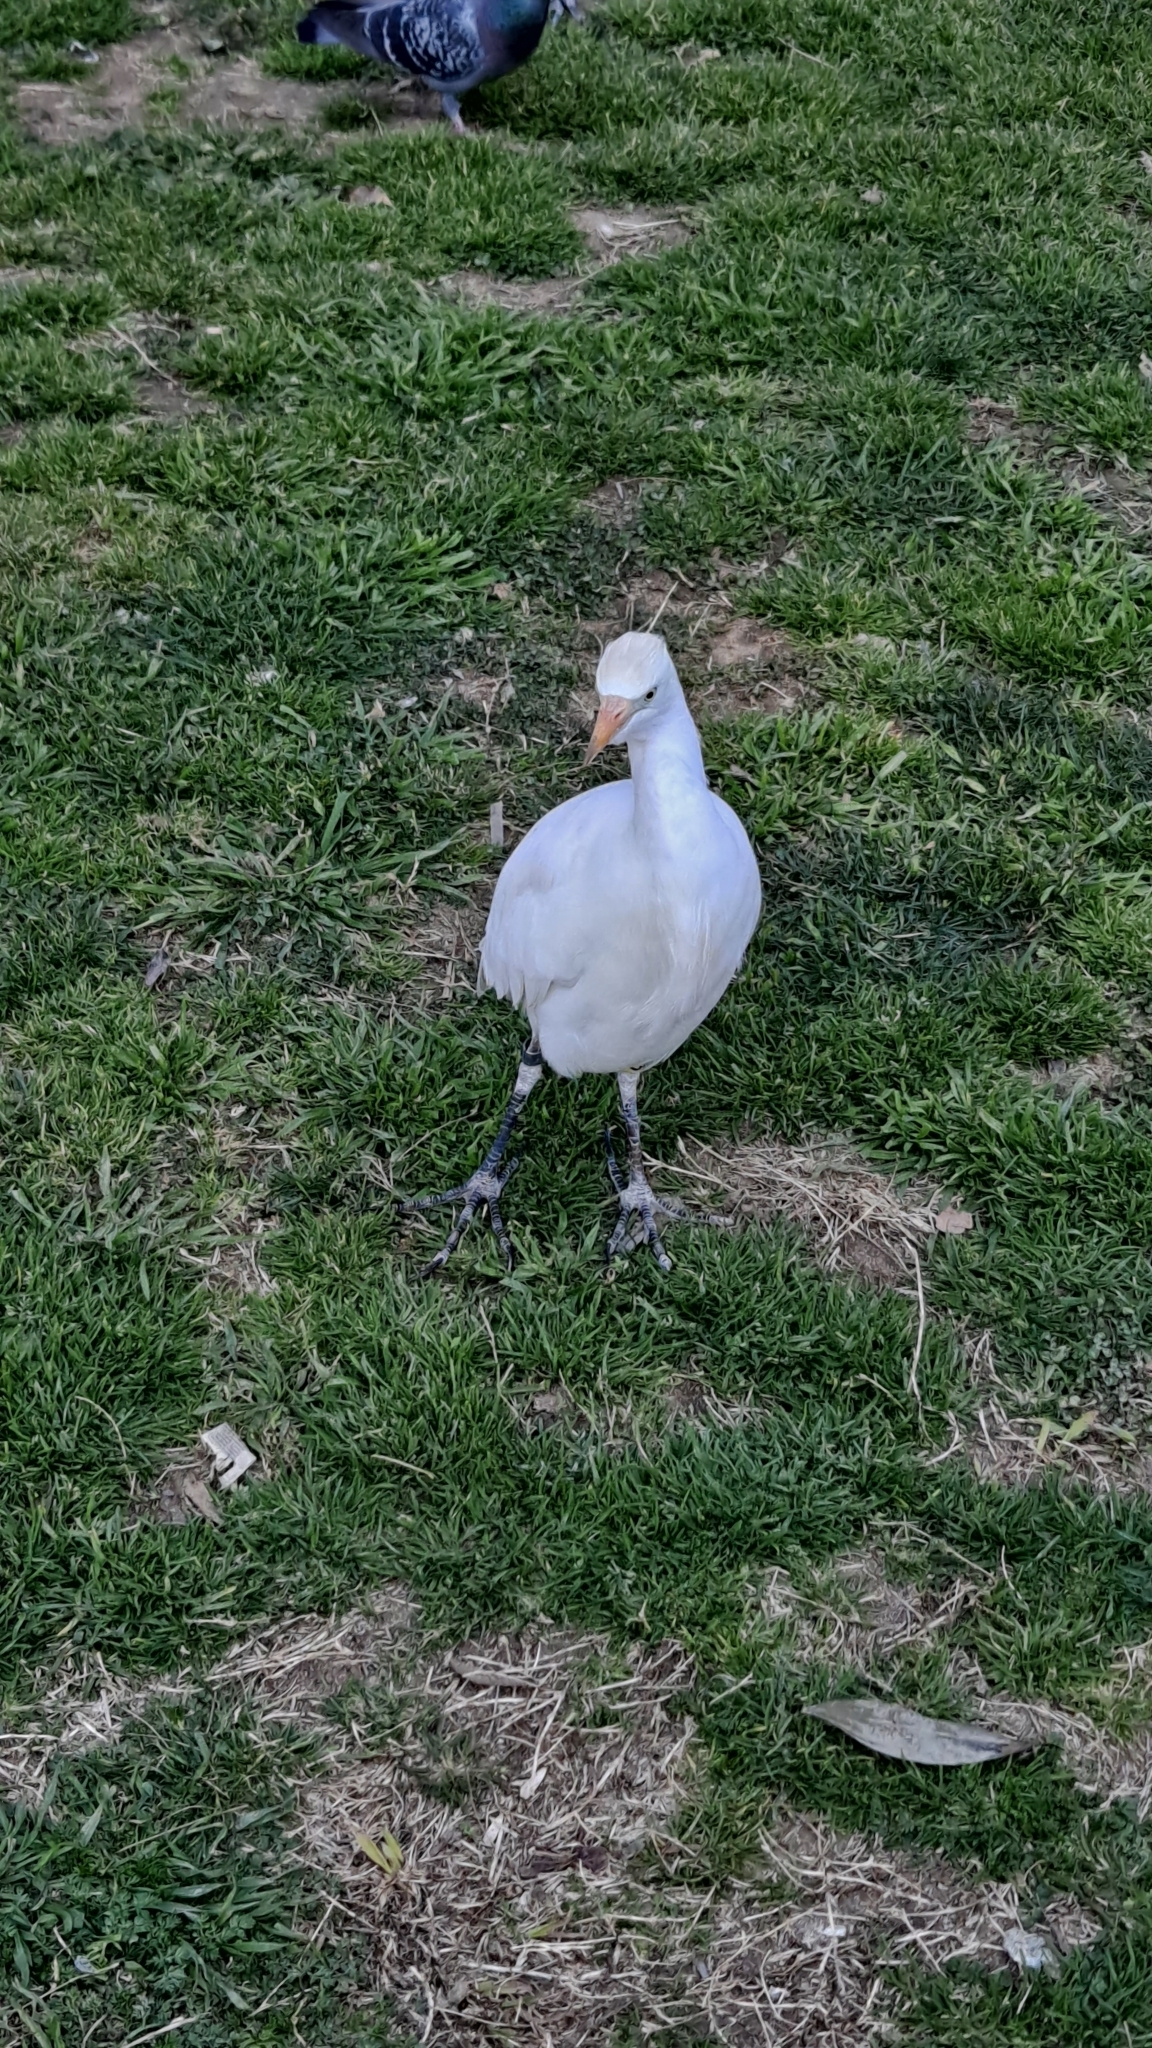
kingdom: Animalia
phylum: Chordata
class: Aves
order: Pelecaniformes
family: Ardeidae
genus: Bubulcus
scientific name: Bubulcus ibis
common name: Cattle egret
